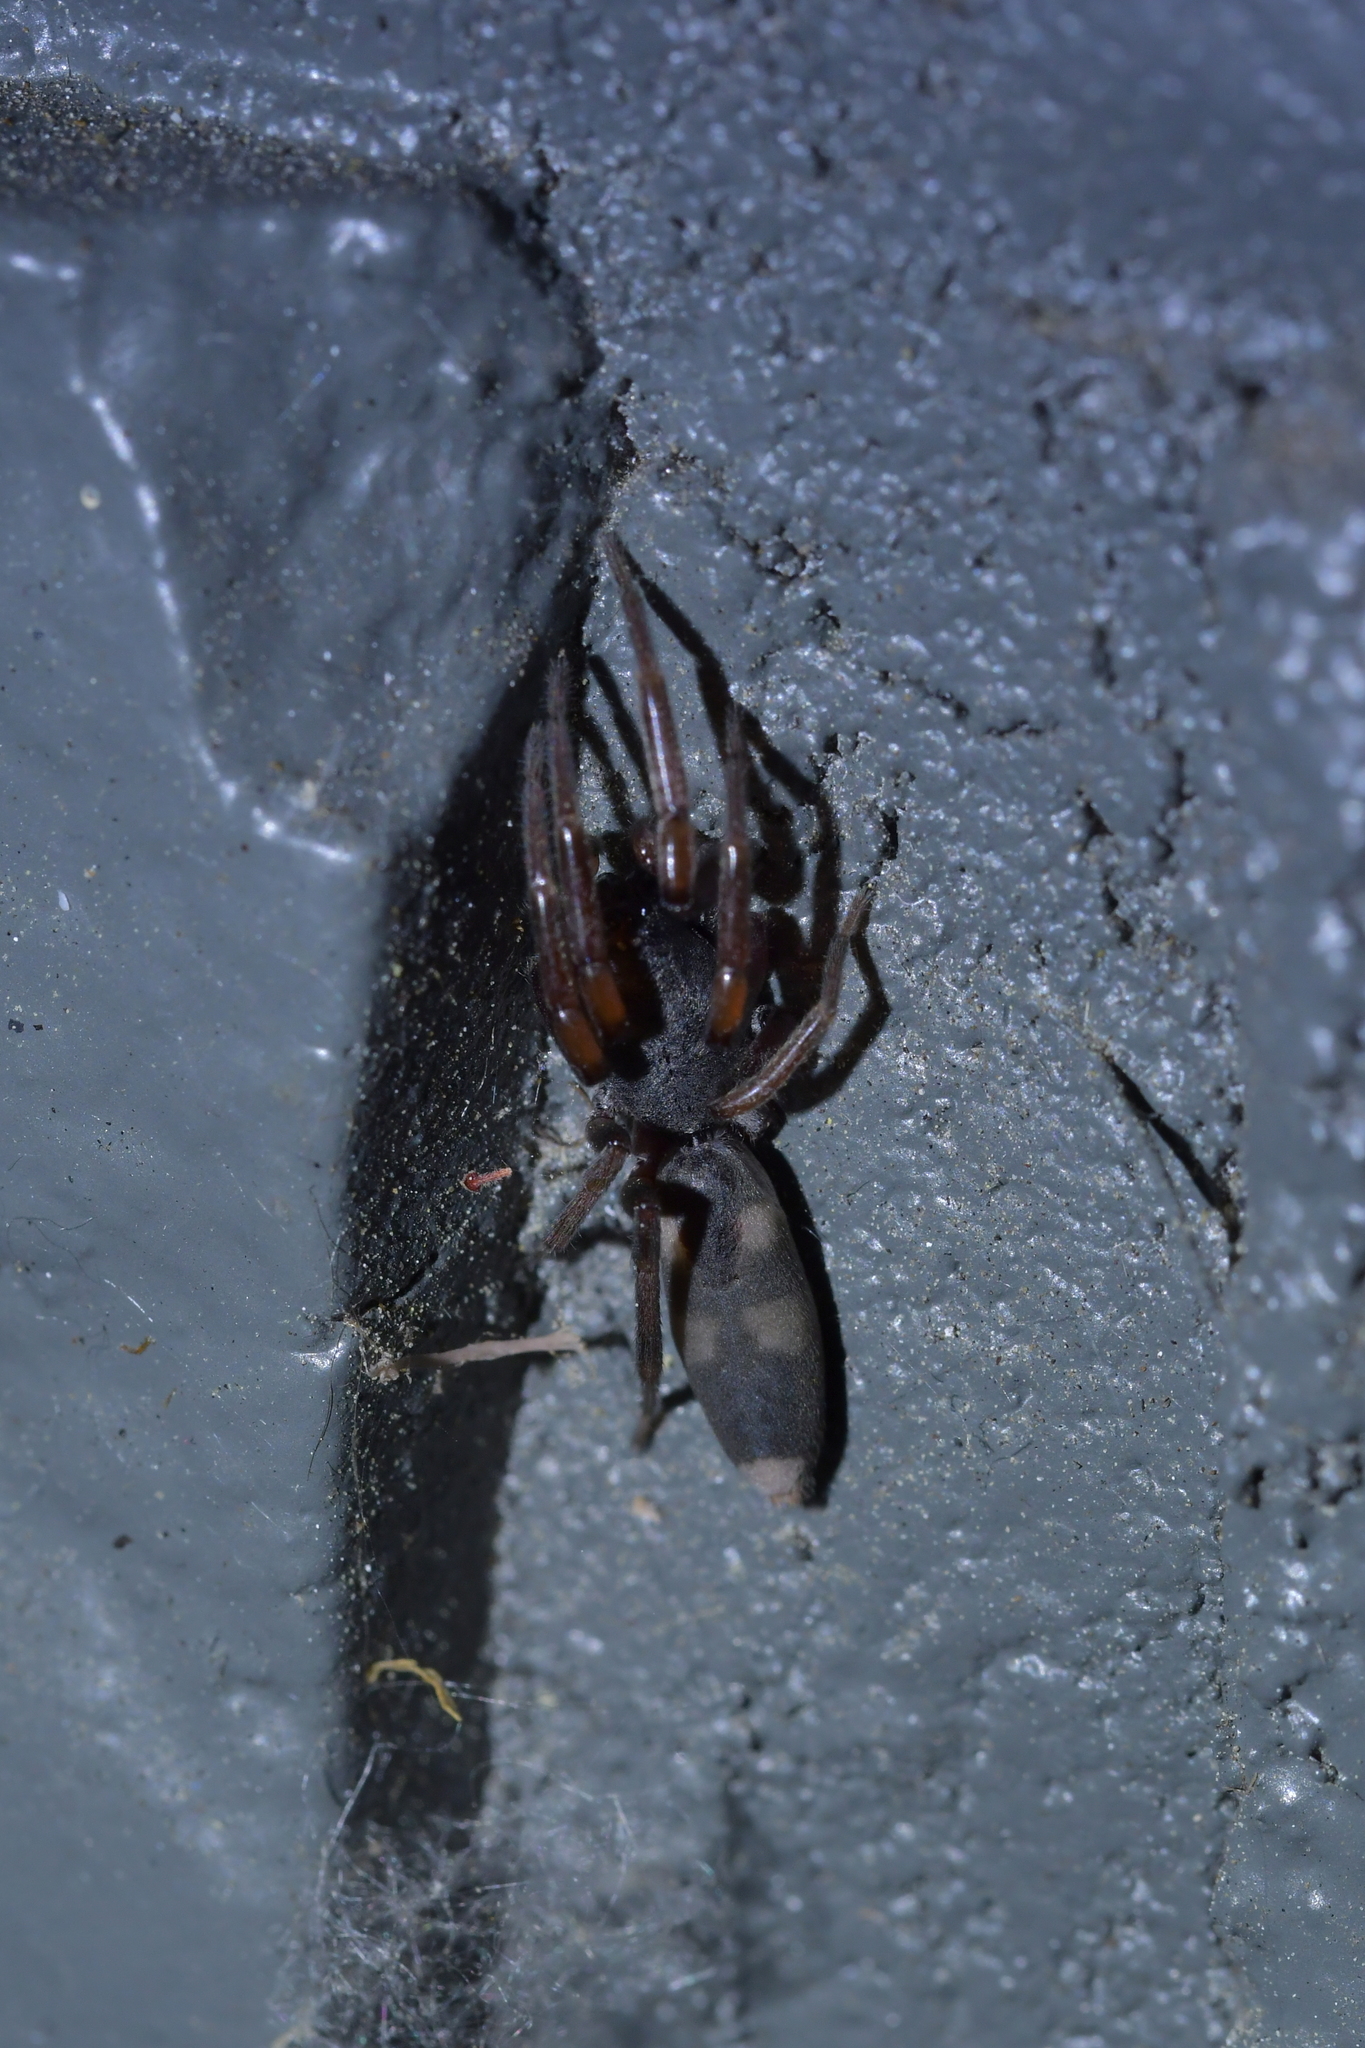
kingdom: Animalia
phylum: Arthropoda
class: Arachnida
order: Araneae
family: Lamponidae
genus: Lampona
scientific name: Lampona murina
